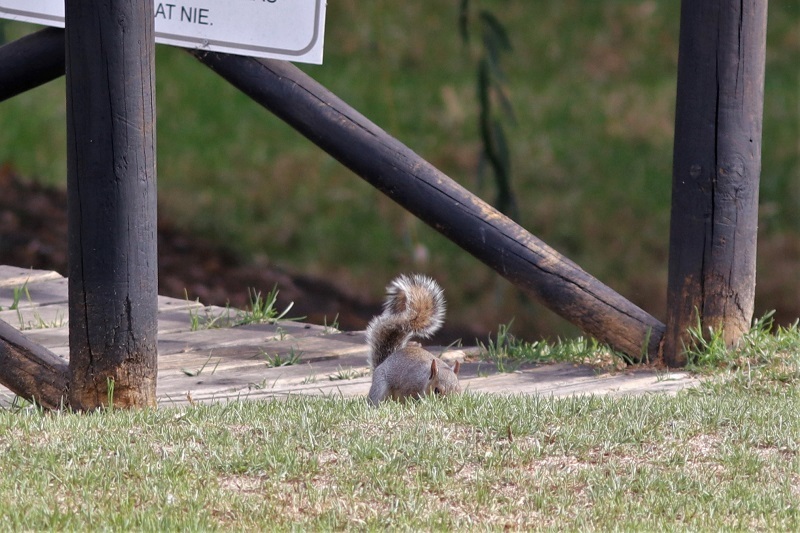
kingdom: Animalia
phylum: Chordata
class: Mammalia
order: Rodentia
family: Sciuridae
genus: Sciurus
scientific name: Sciurus carolinensis
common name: Eastern gray squirrel
